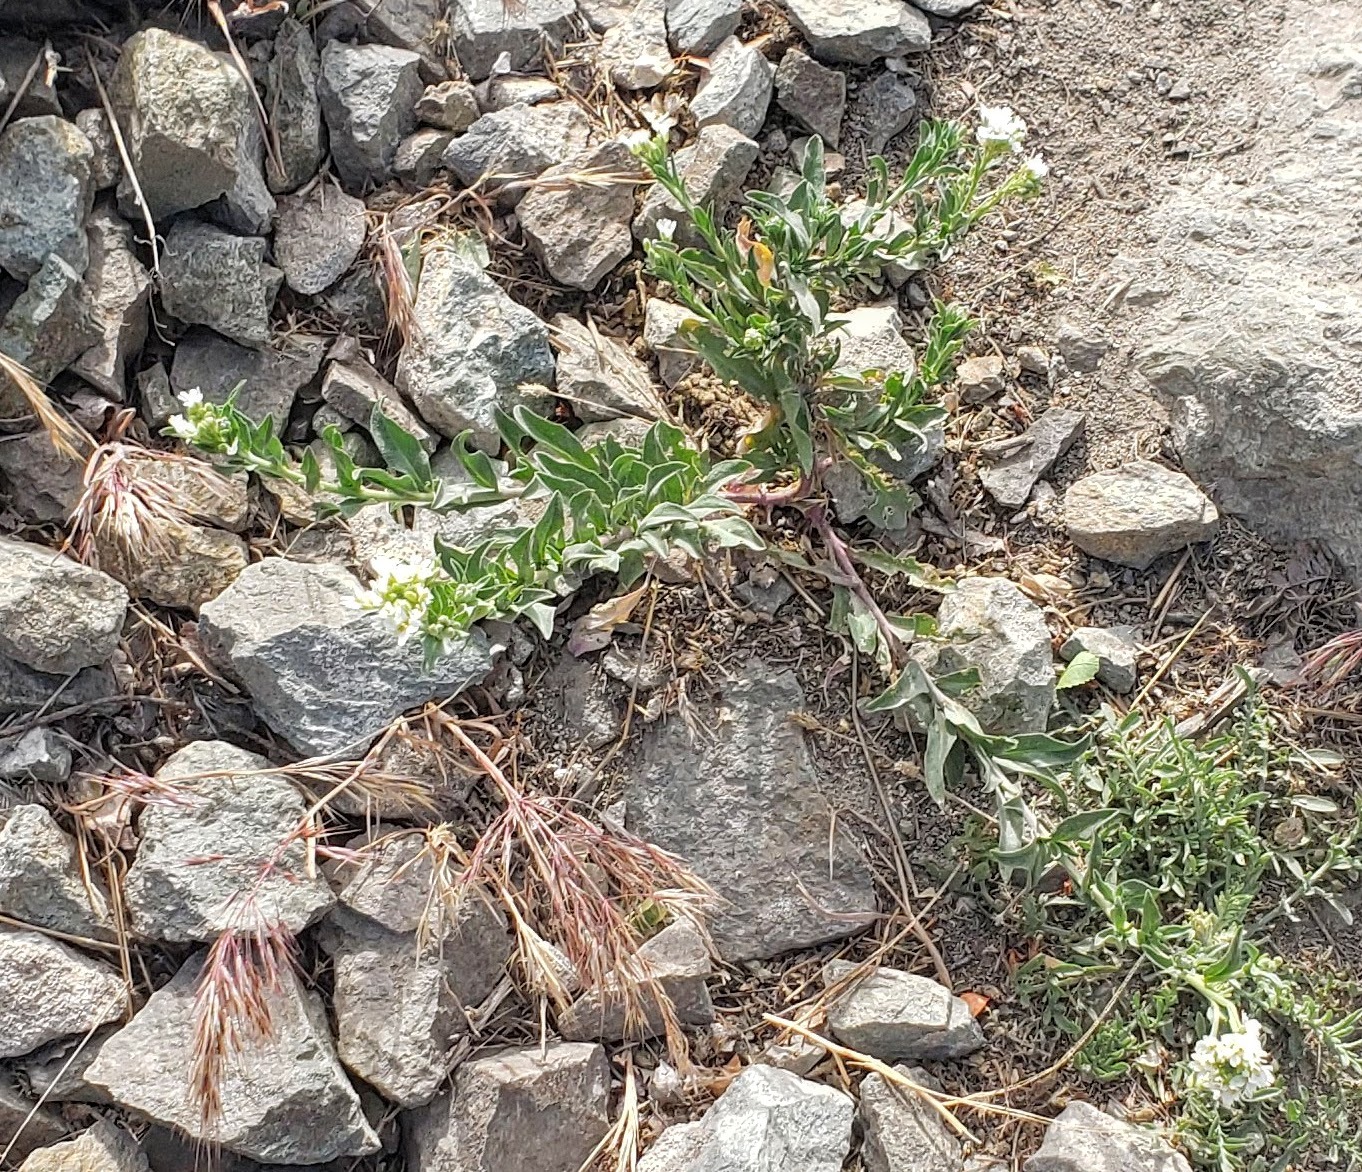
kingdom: Plantae
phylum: Tracheophyta
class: Magnoliopsida
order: Brassicales
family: Brassicaceae
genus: Berteroa
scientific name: Berteroa incana
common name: Hoary alison
